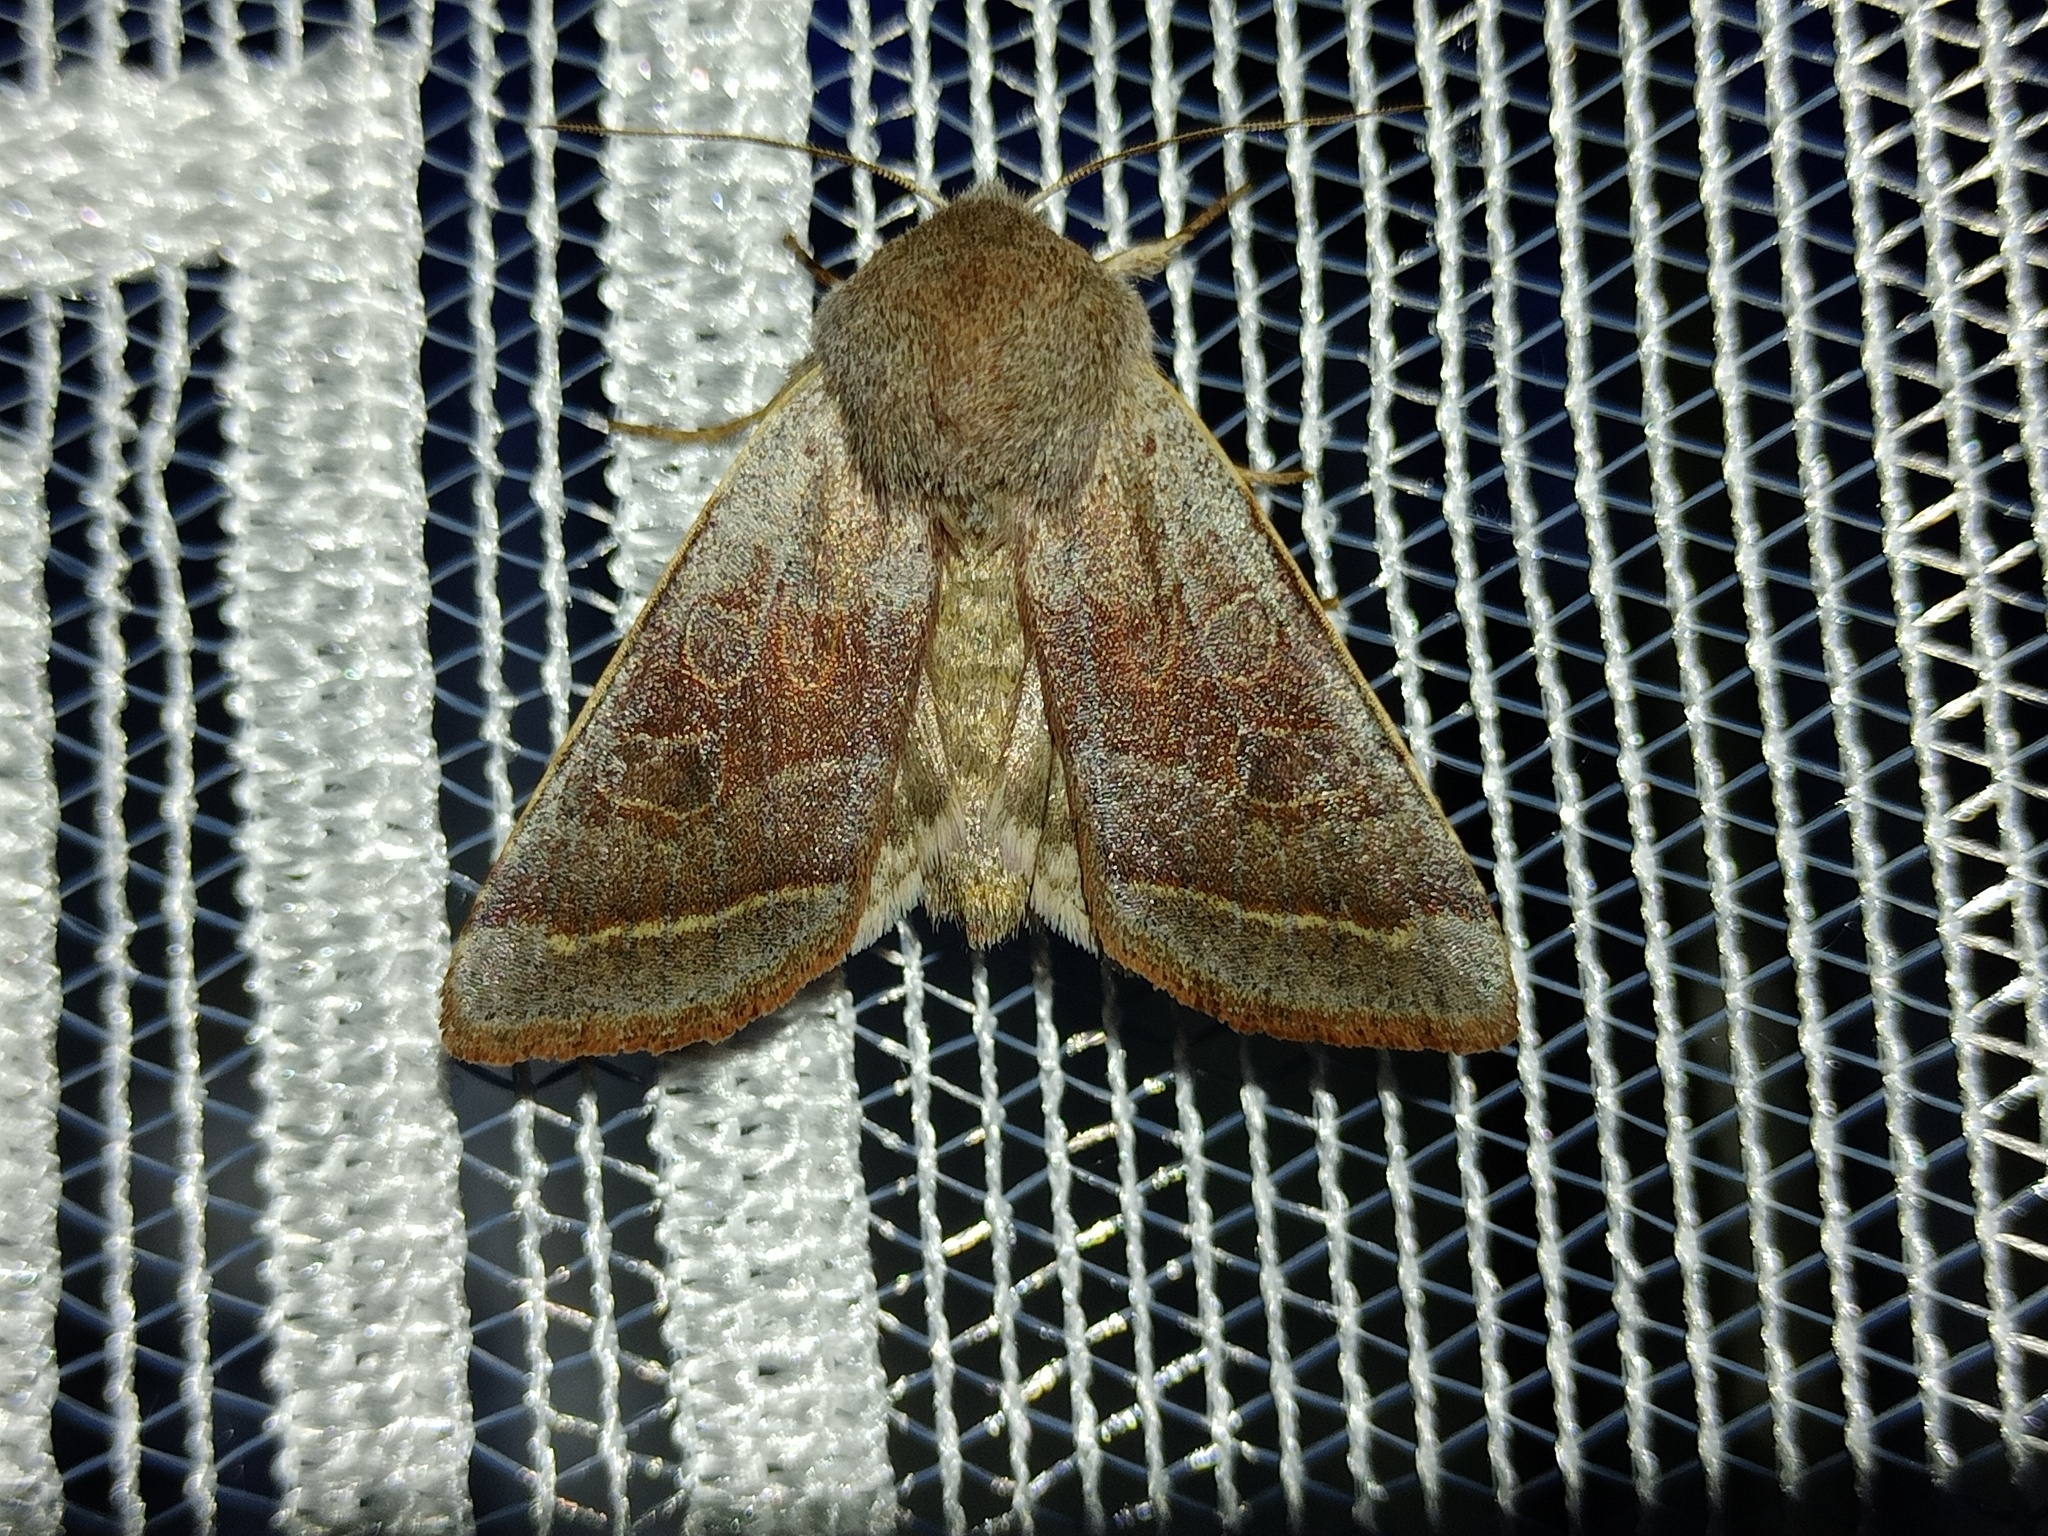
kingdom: Animalia
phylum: Arthropoda
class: Insecta
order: Lepidoptera
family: Noctuidae
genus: Orthosia
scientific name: Orthosia opima
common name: Northern drab
